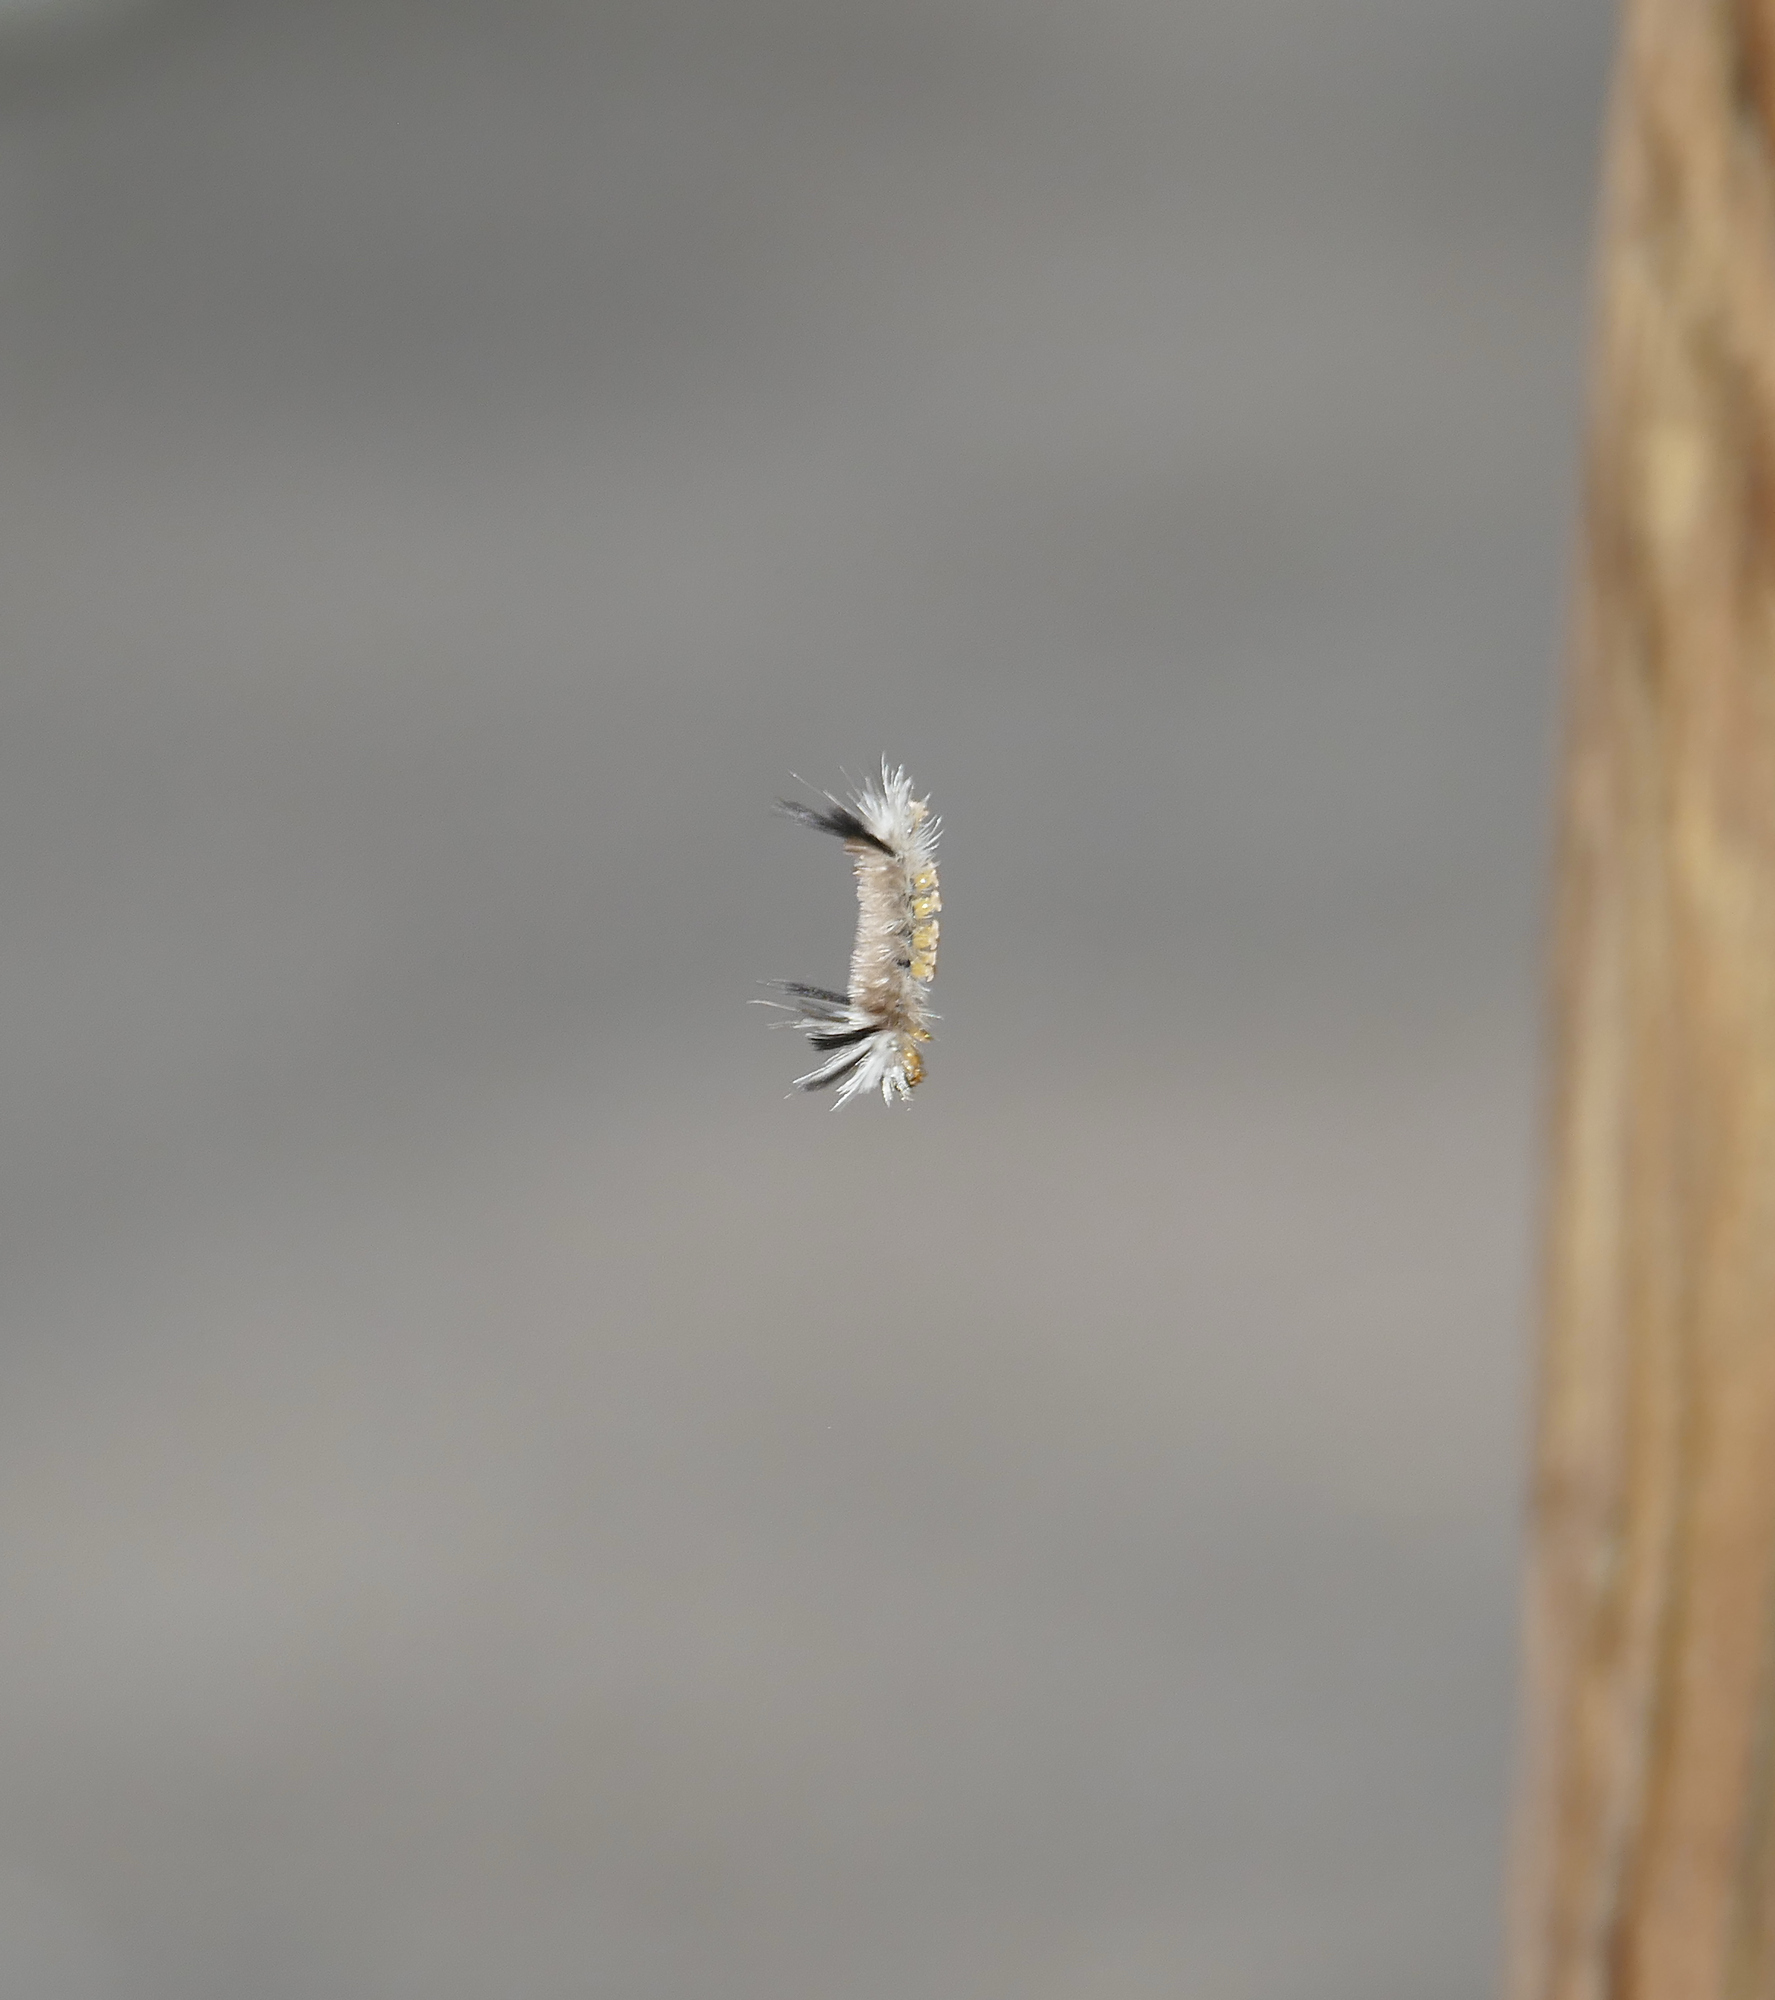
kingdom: Animalia
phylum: Arthropoda
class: Insecta
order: Lepidoptera
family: Erebidae
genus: Halysidota
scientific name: Halysidota tessellaris
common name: Banded tussock moth
